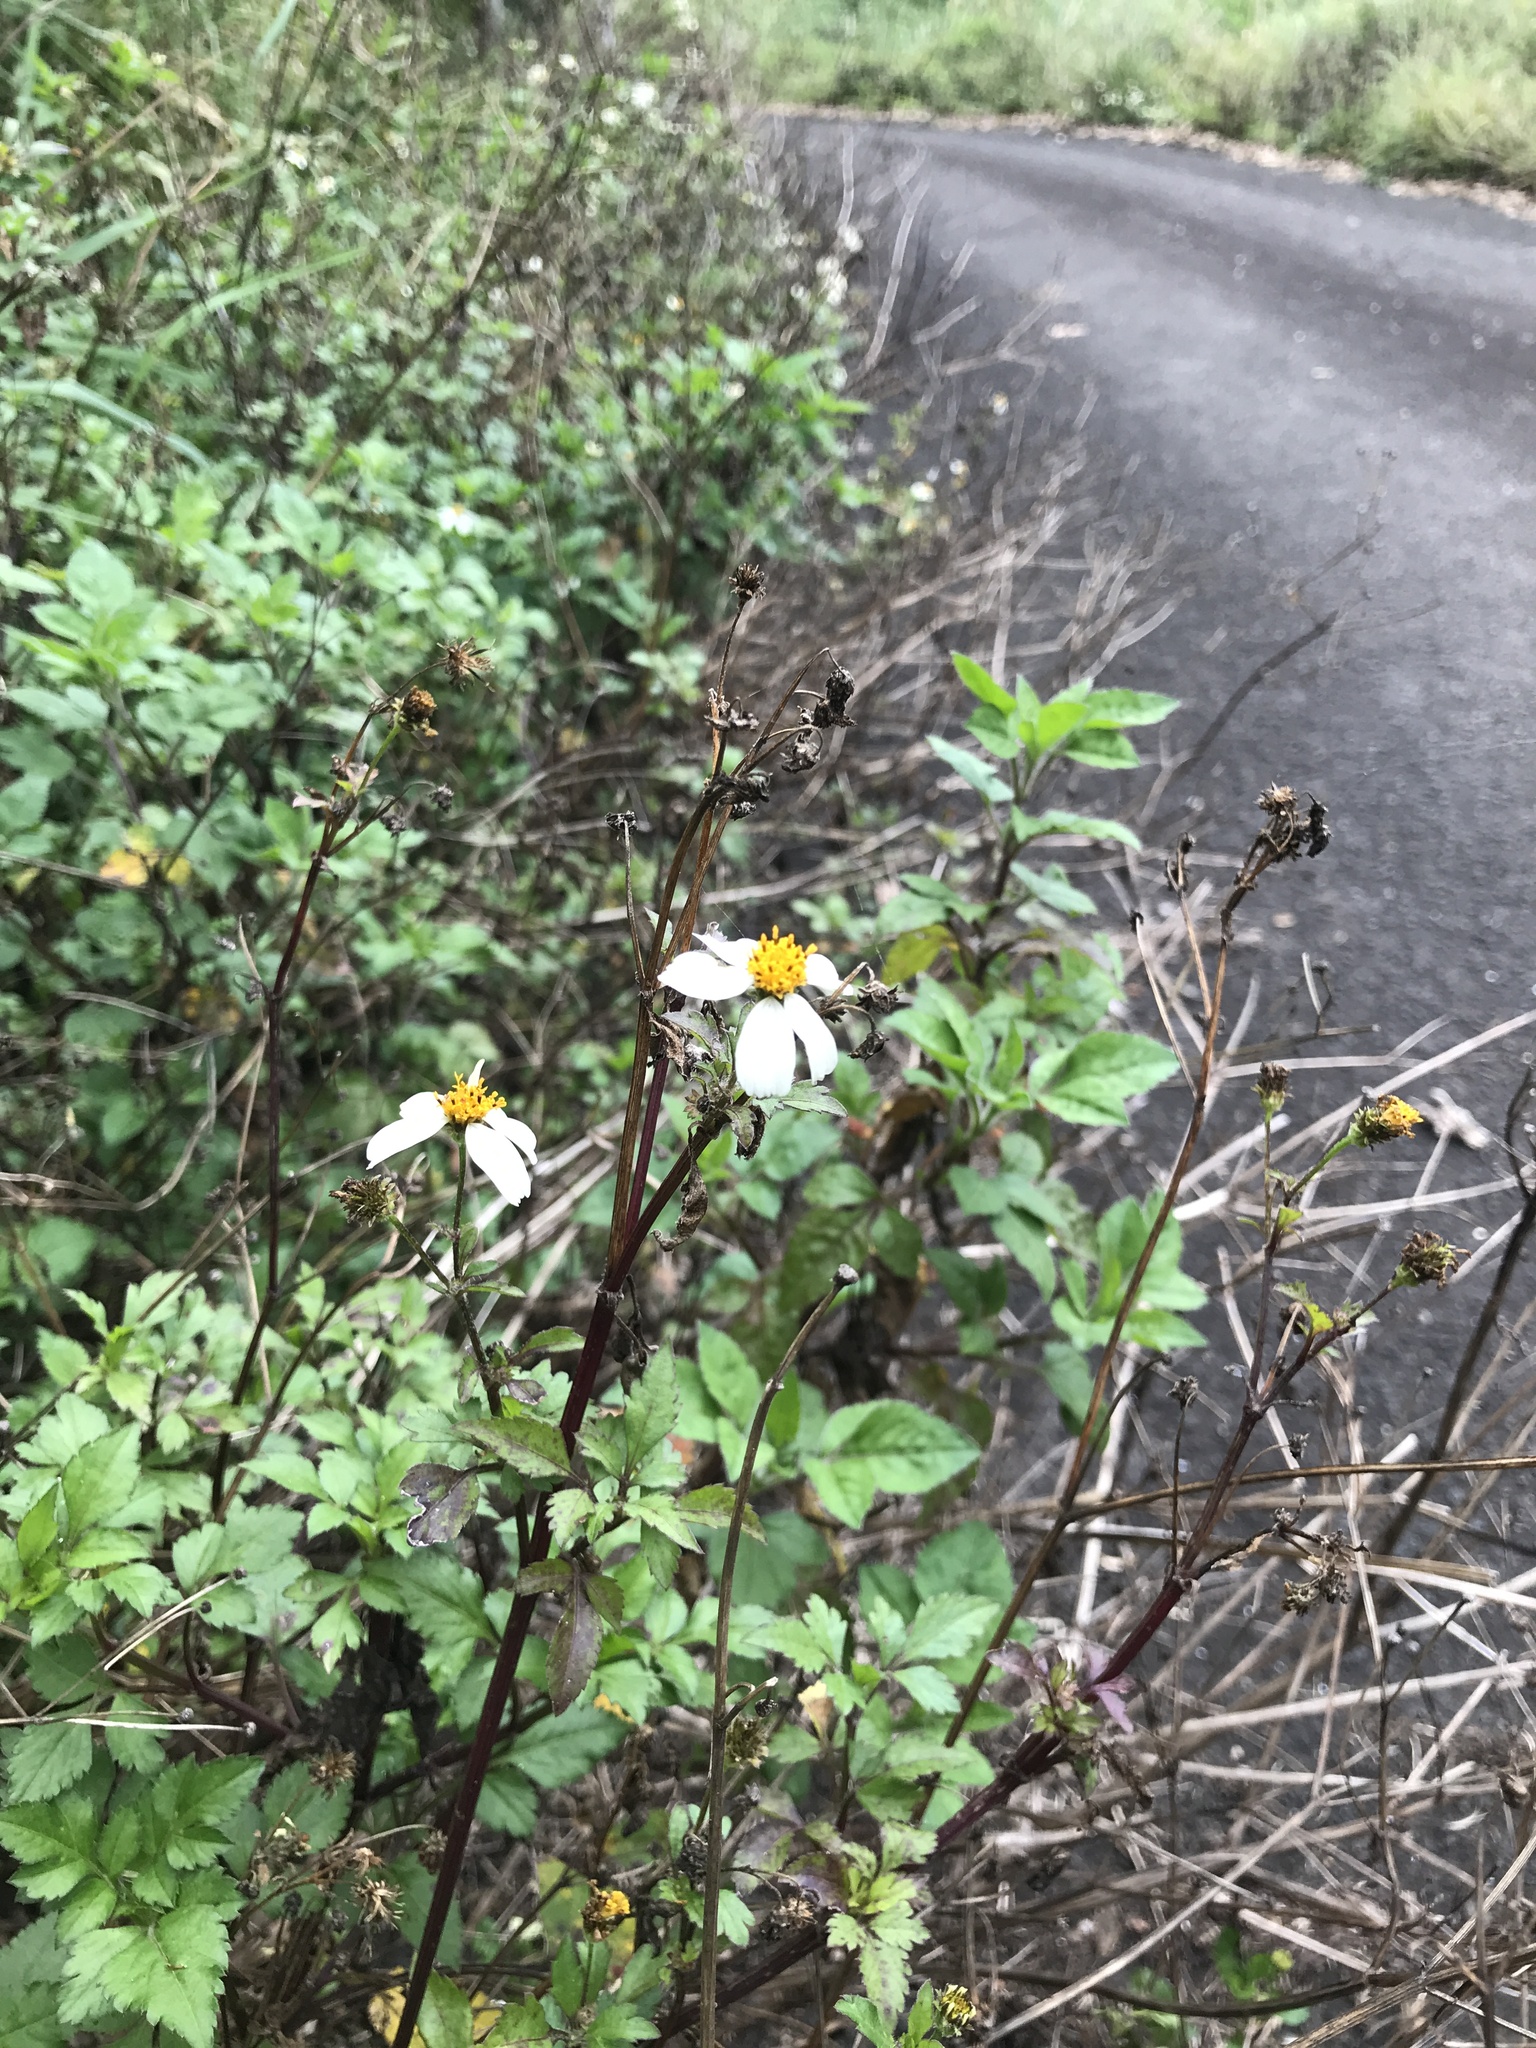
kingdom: Plantae
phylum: Tracheophyta
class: Magnoliopsida
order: Asterales
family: Asteraceae
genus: Bidens
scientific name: Bidens alba
